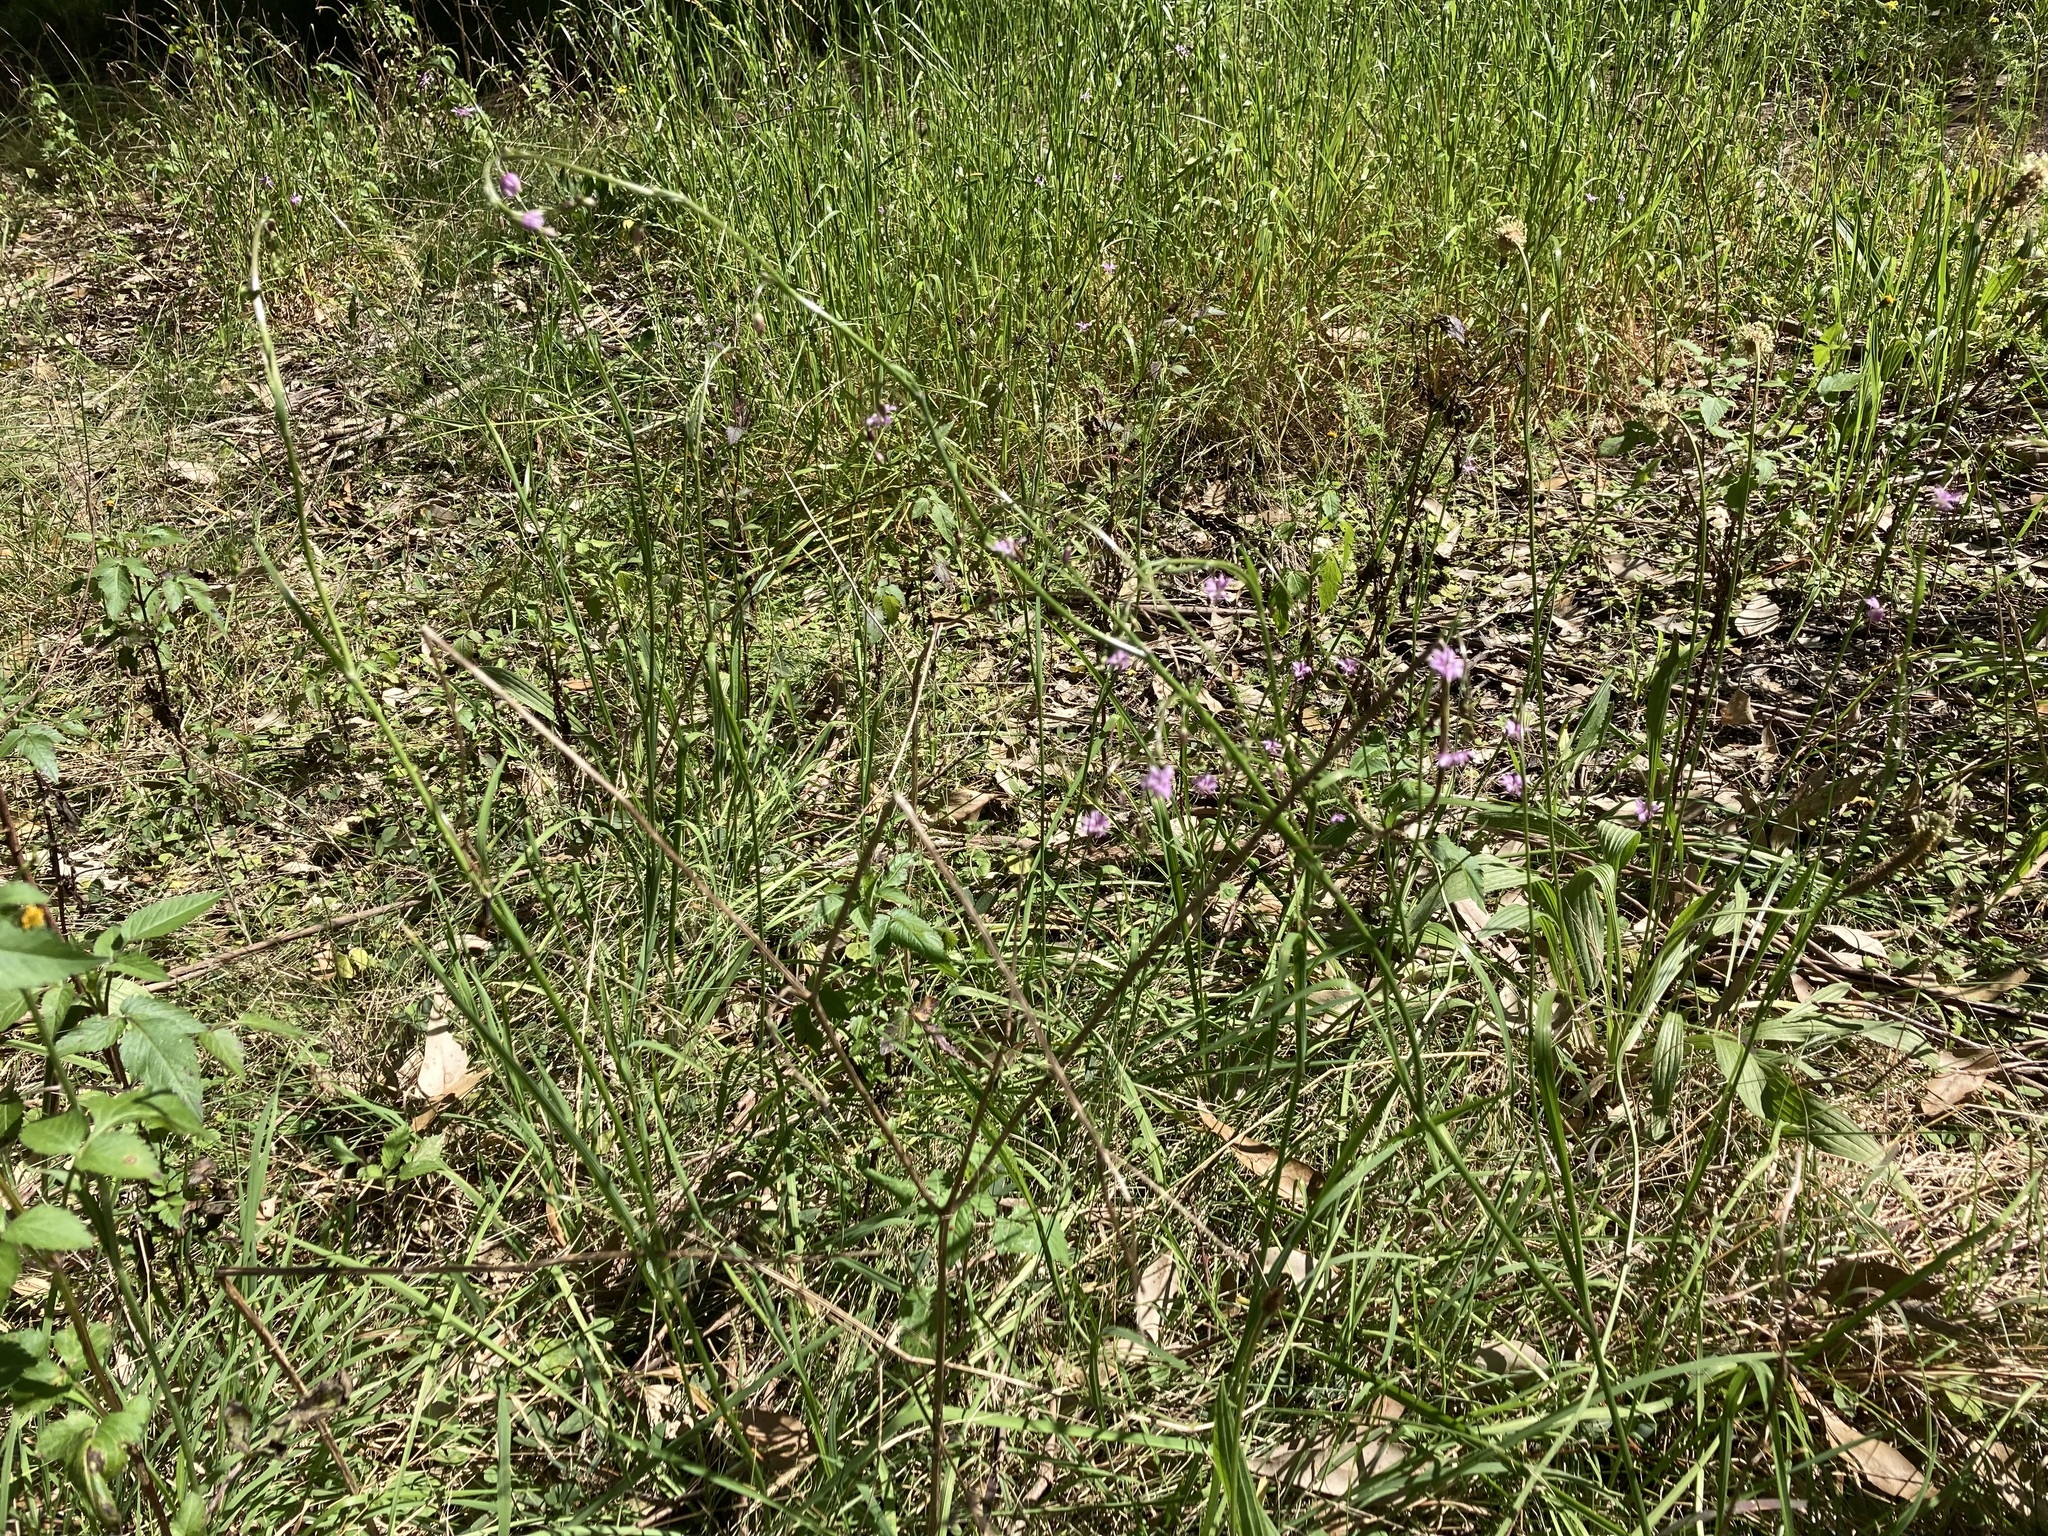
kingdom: Plantae
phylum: Tracheophyta
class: Liliopsida
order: Asparagales
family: Asparagaceae
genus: Arthropodium
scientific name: Arthropodium minus
